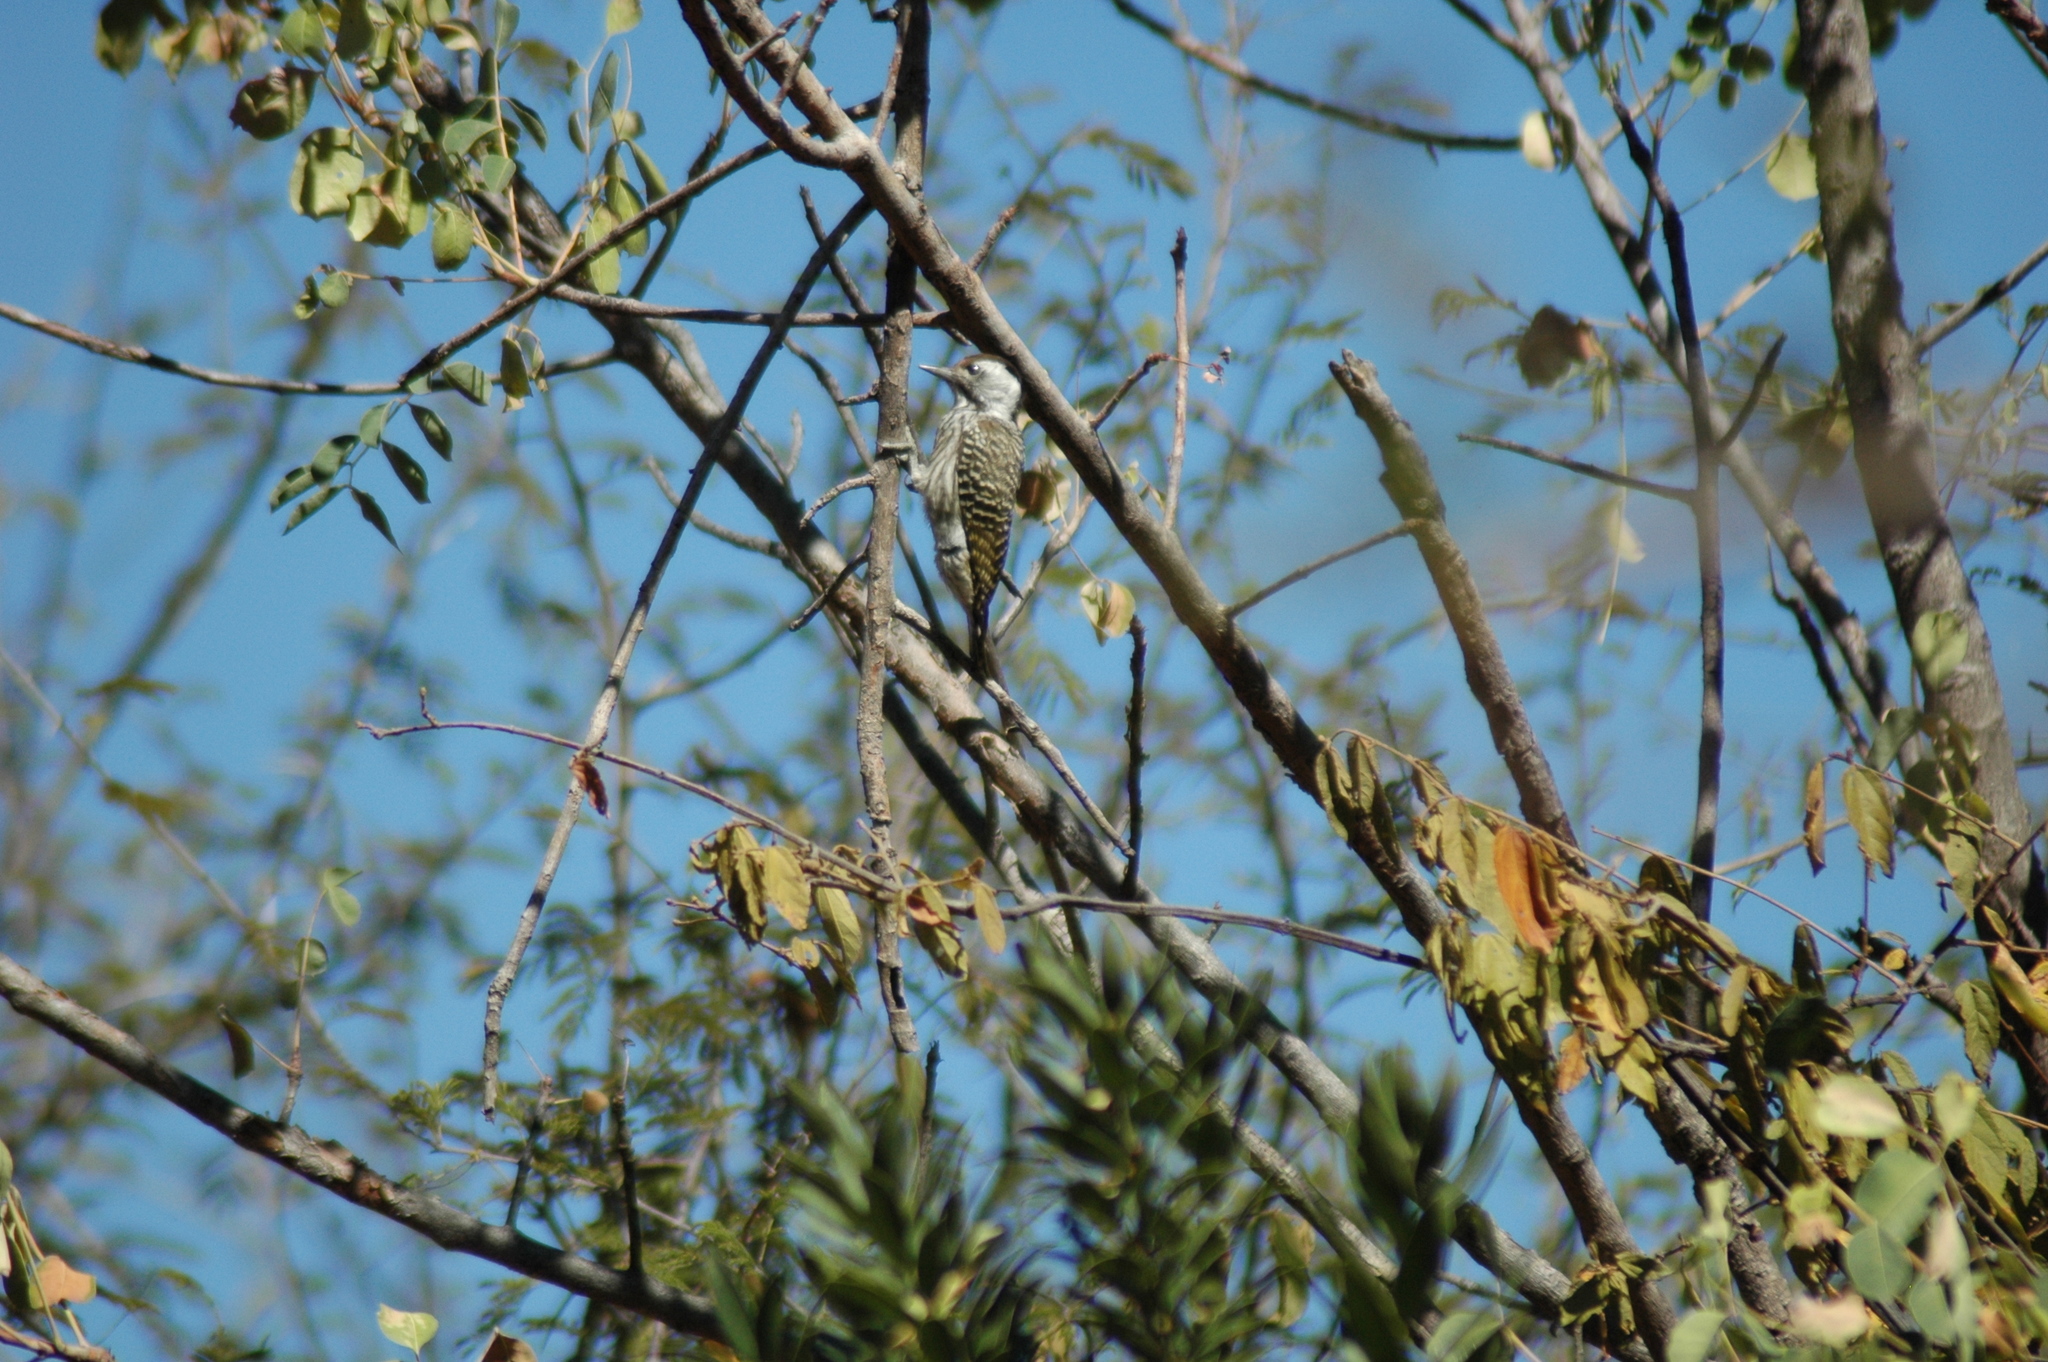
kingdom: Animalia
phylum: Chordata
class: Aves
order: Piciformes
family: Picidae
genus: Dendropicos
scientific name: Dendropicos fuscescens
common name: Cardinal woodpecker
